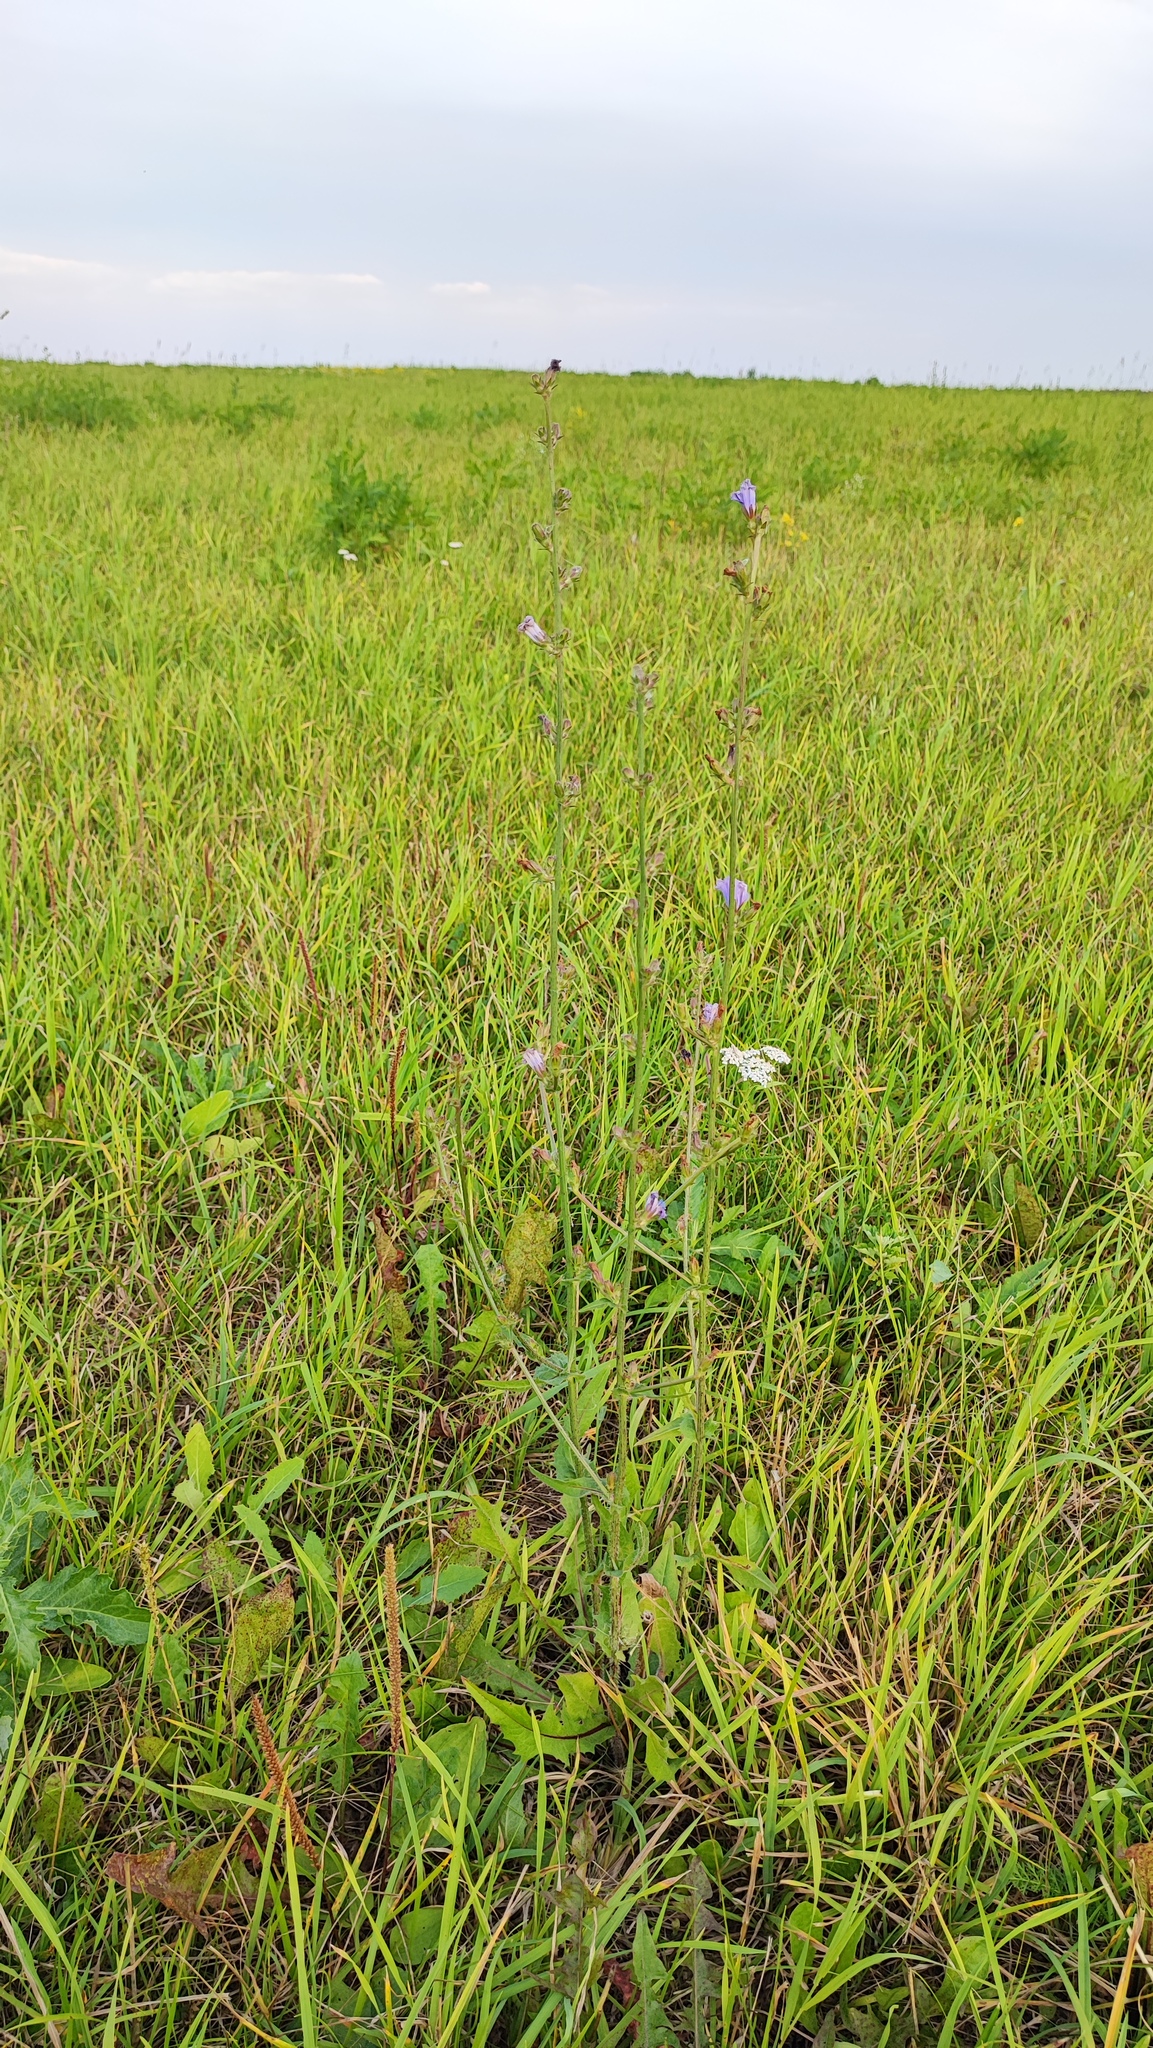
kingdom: Plantae
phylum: Tracheophyta
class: Magnoliopsida
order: Asterales
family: Asteraceae
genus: Cichorium
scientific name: Cichorium intybus
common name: Chicory
